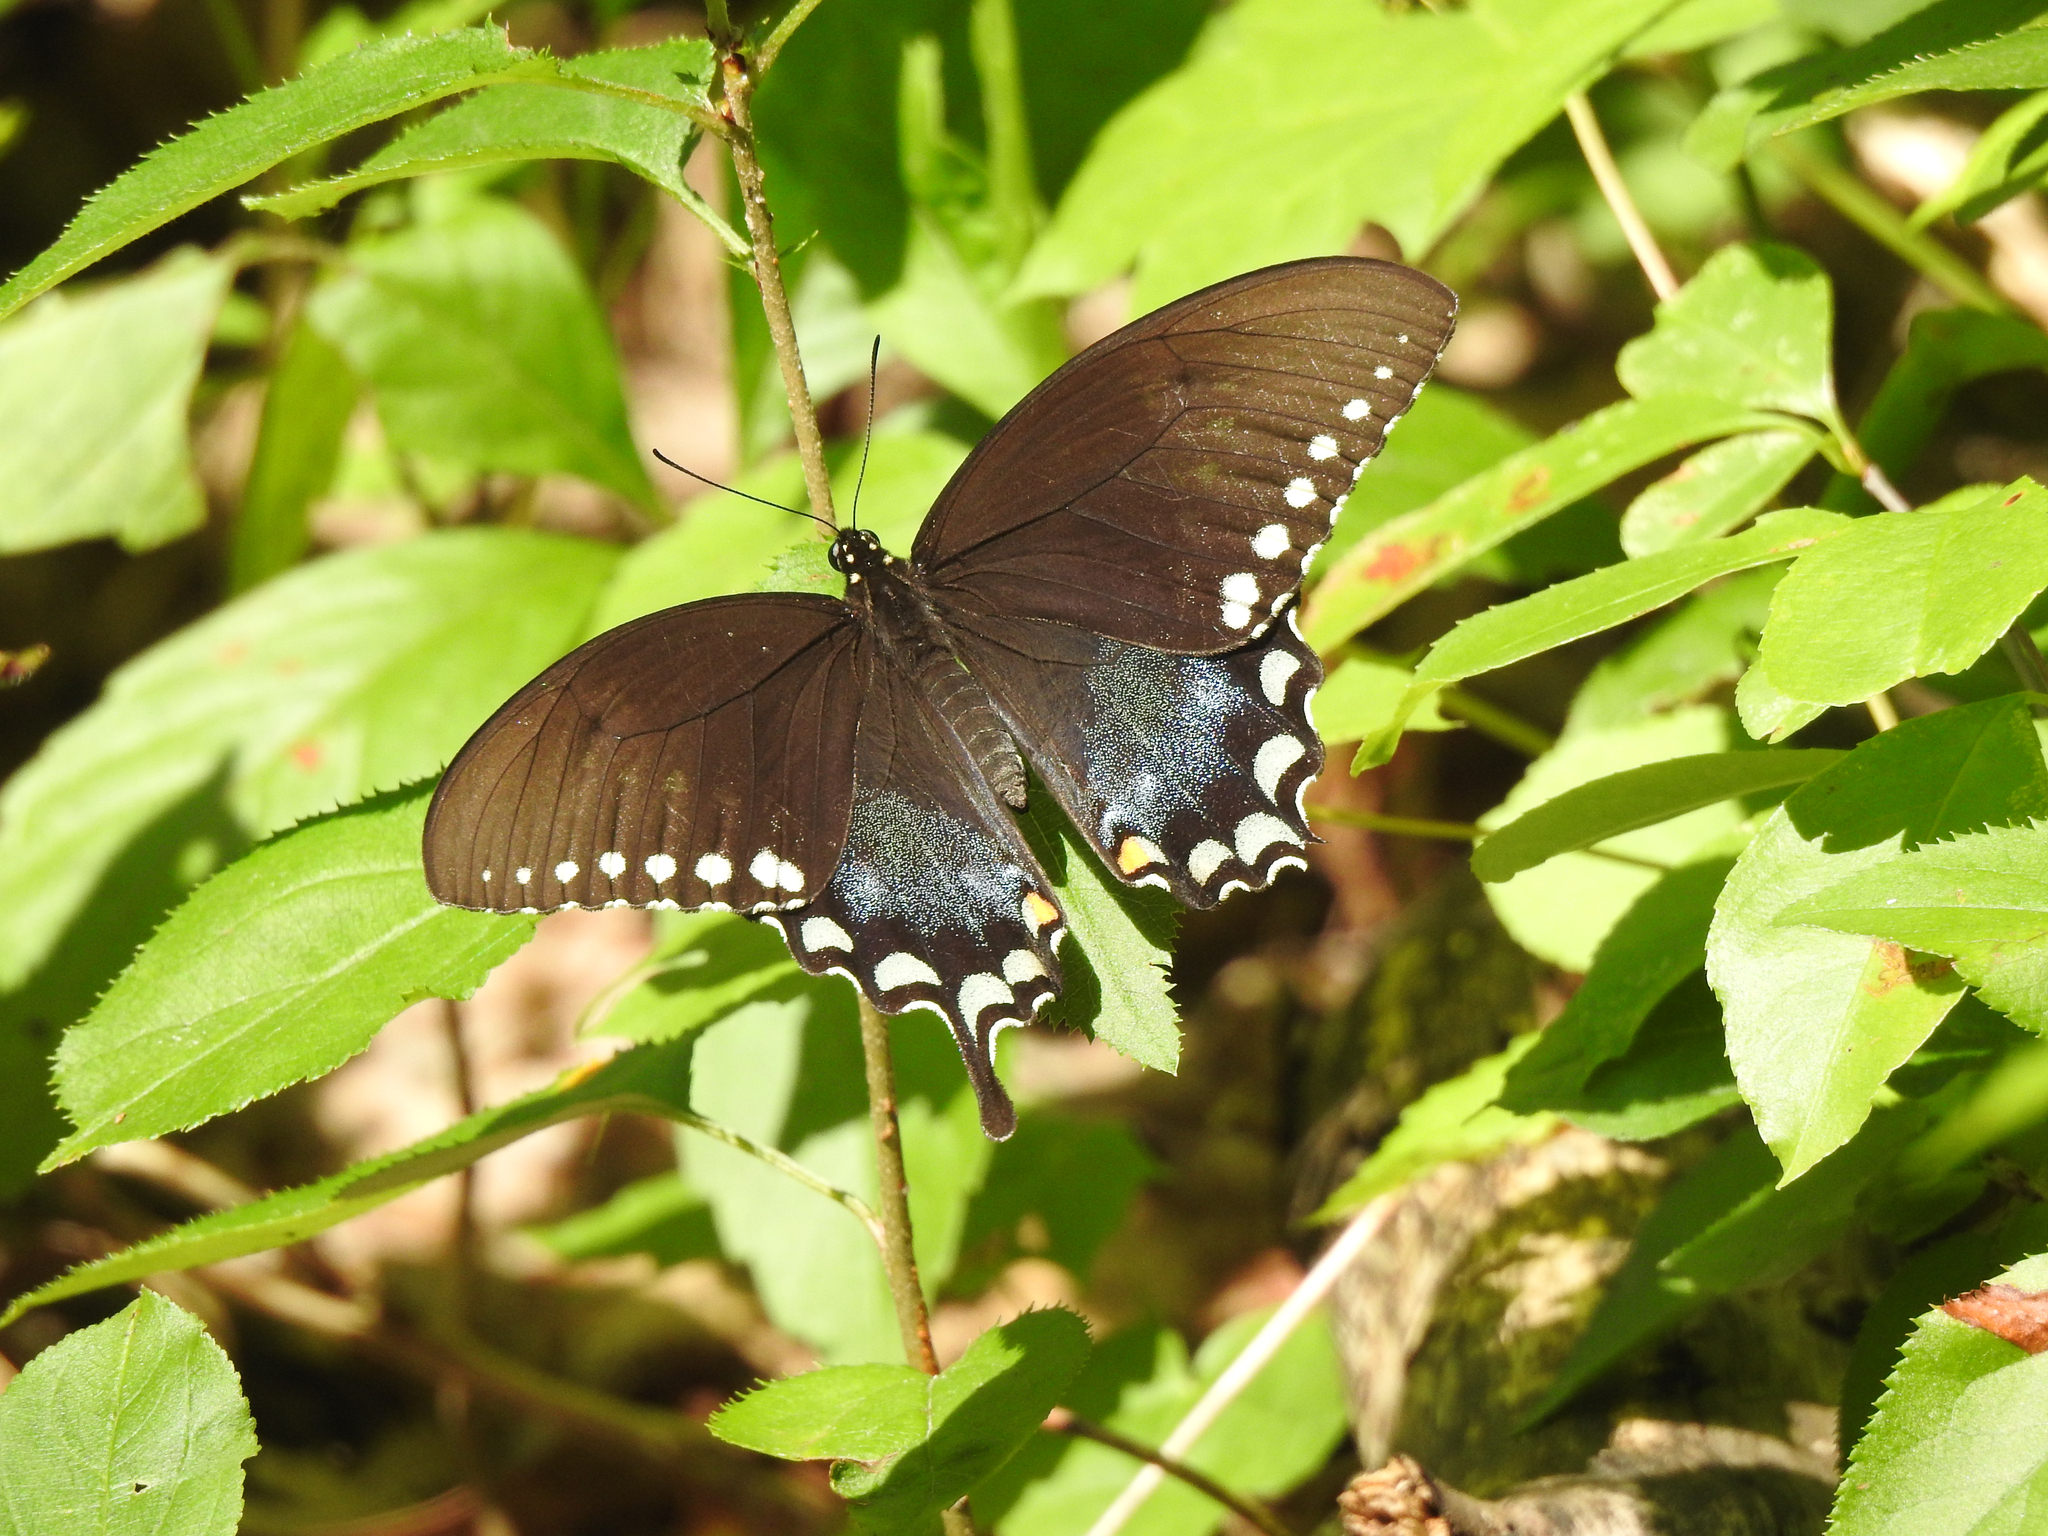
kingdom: Animalia
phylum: Arthropoda
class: Insecta
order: Lepidoptera
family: Papilionidae
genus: Papilio
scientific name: Papilio troilus
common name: Spicebush swallowtail
